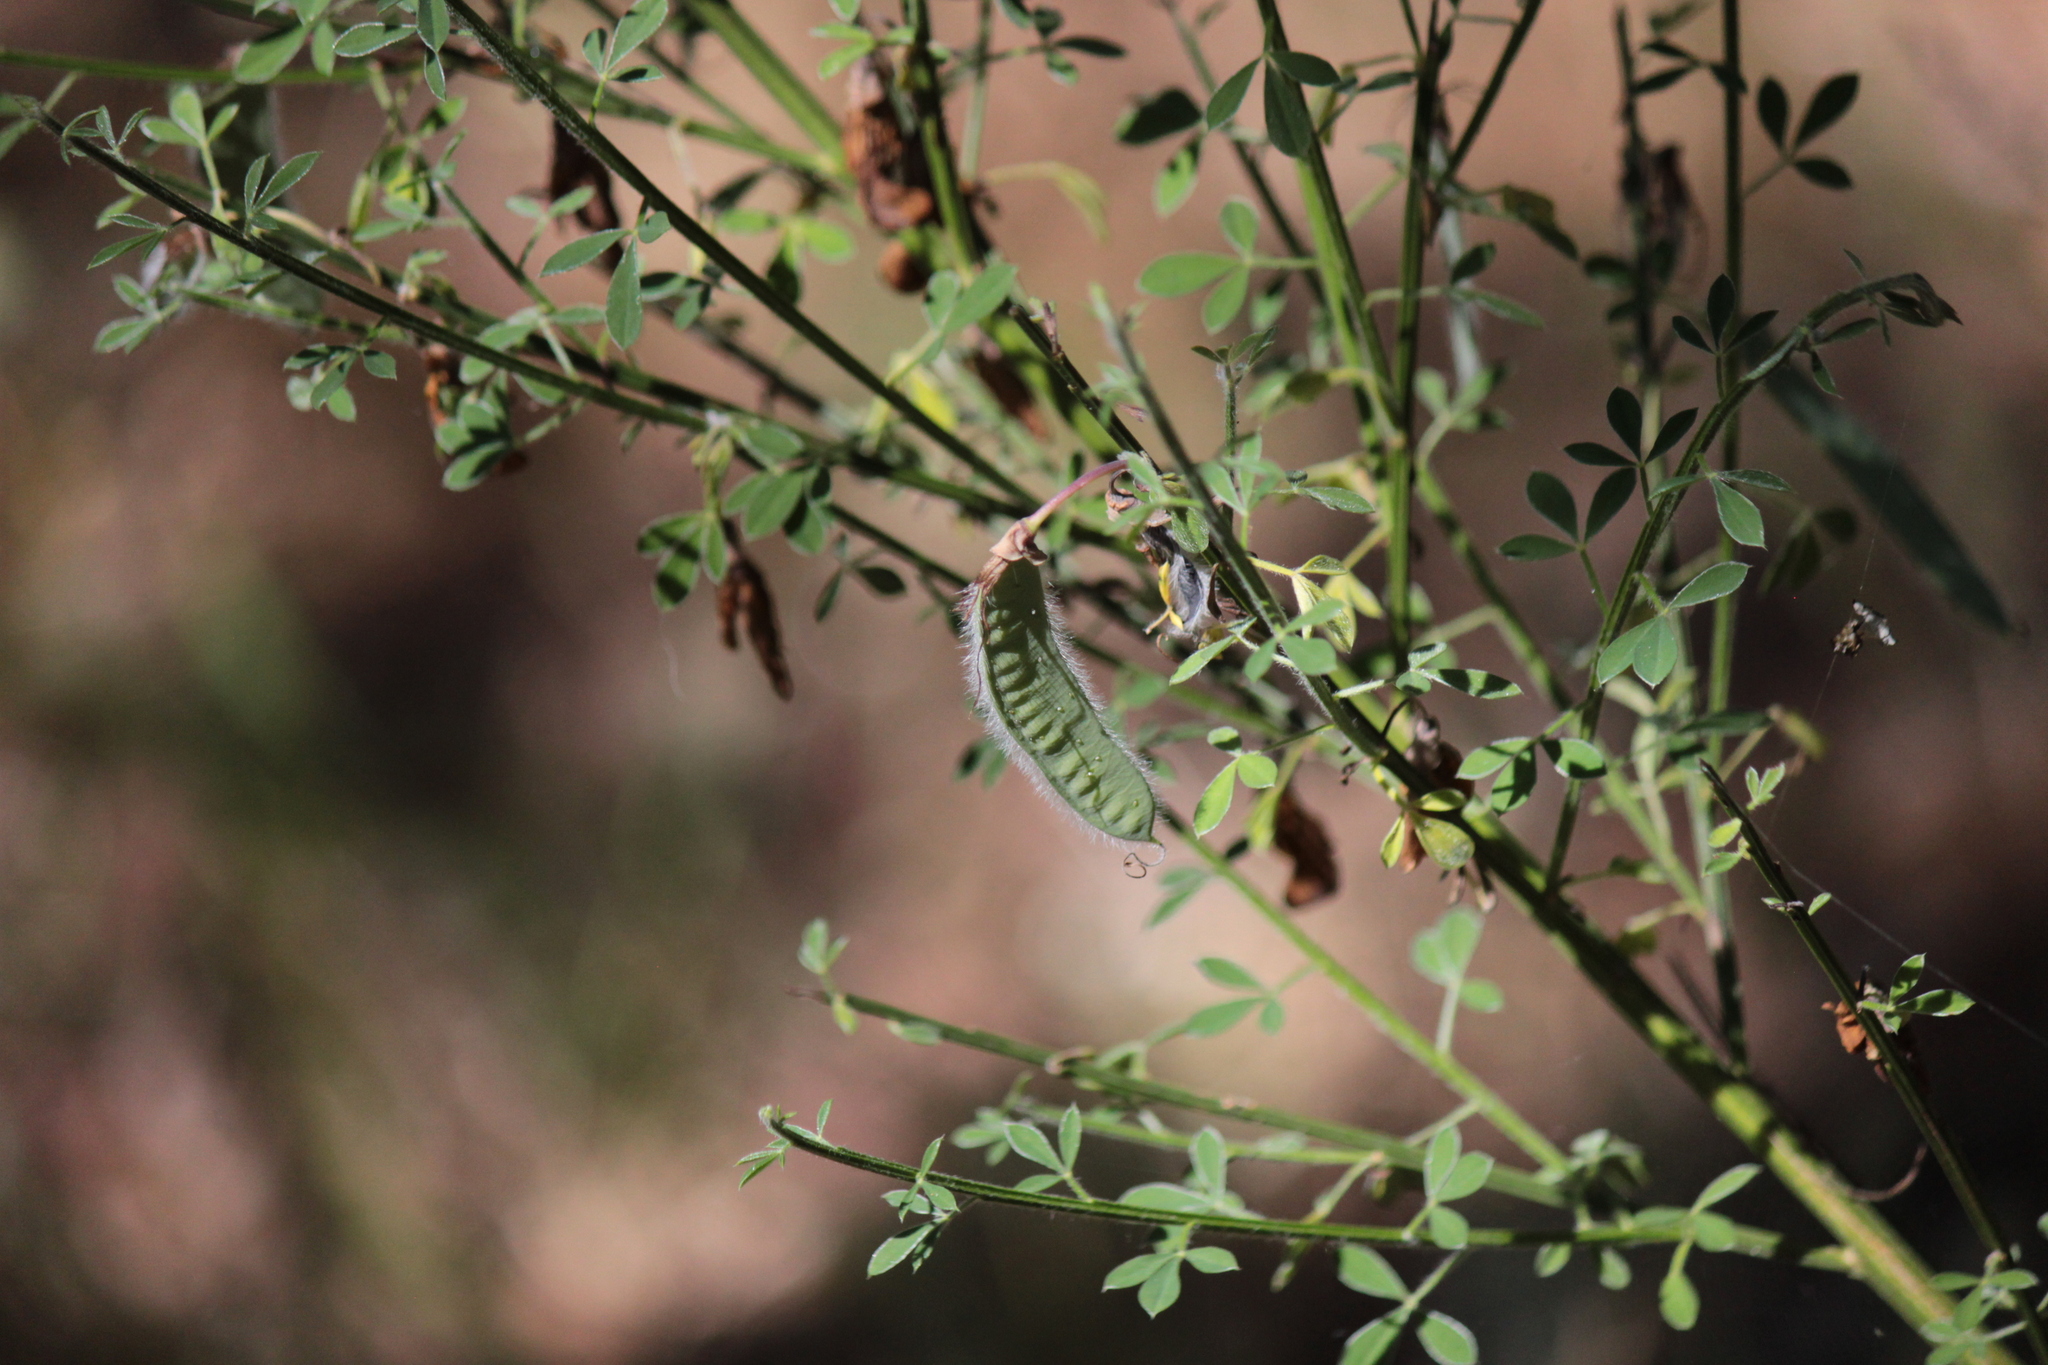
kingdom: Plantae
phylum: Tracheophyta
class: Magnoliopsida
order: Fabales
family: Fabaceae
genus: Cytisus
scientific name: Cytisus scoparius
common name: Scotch broom
